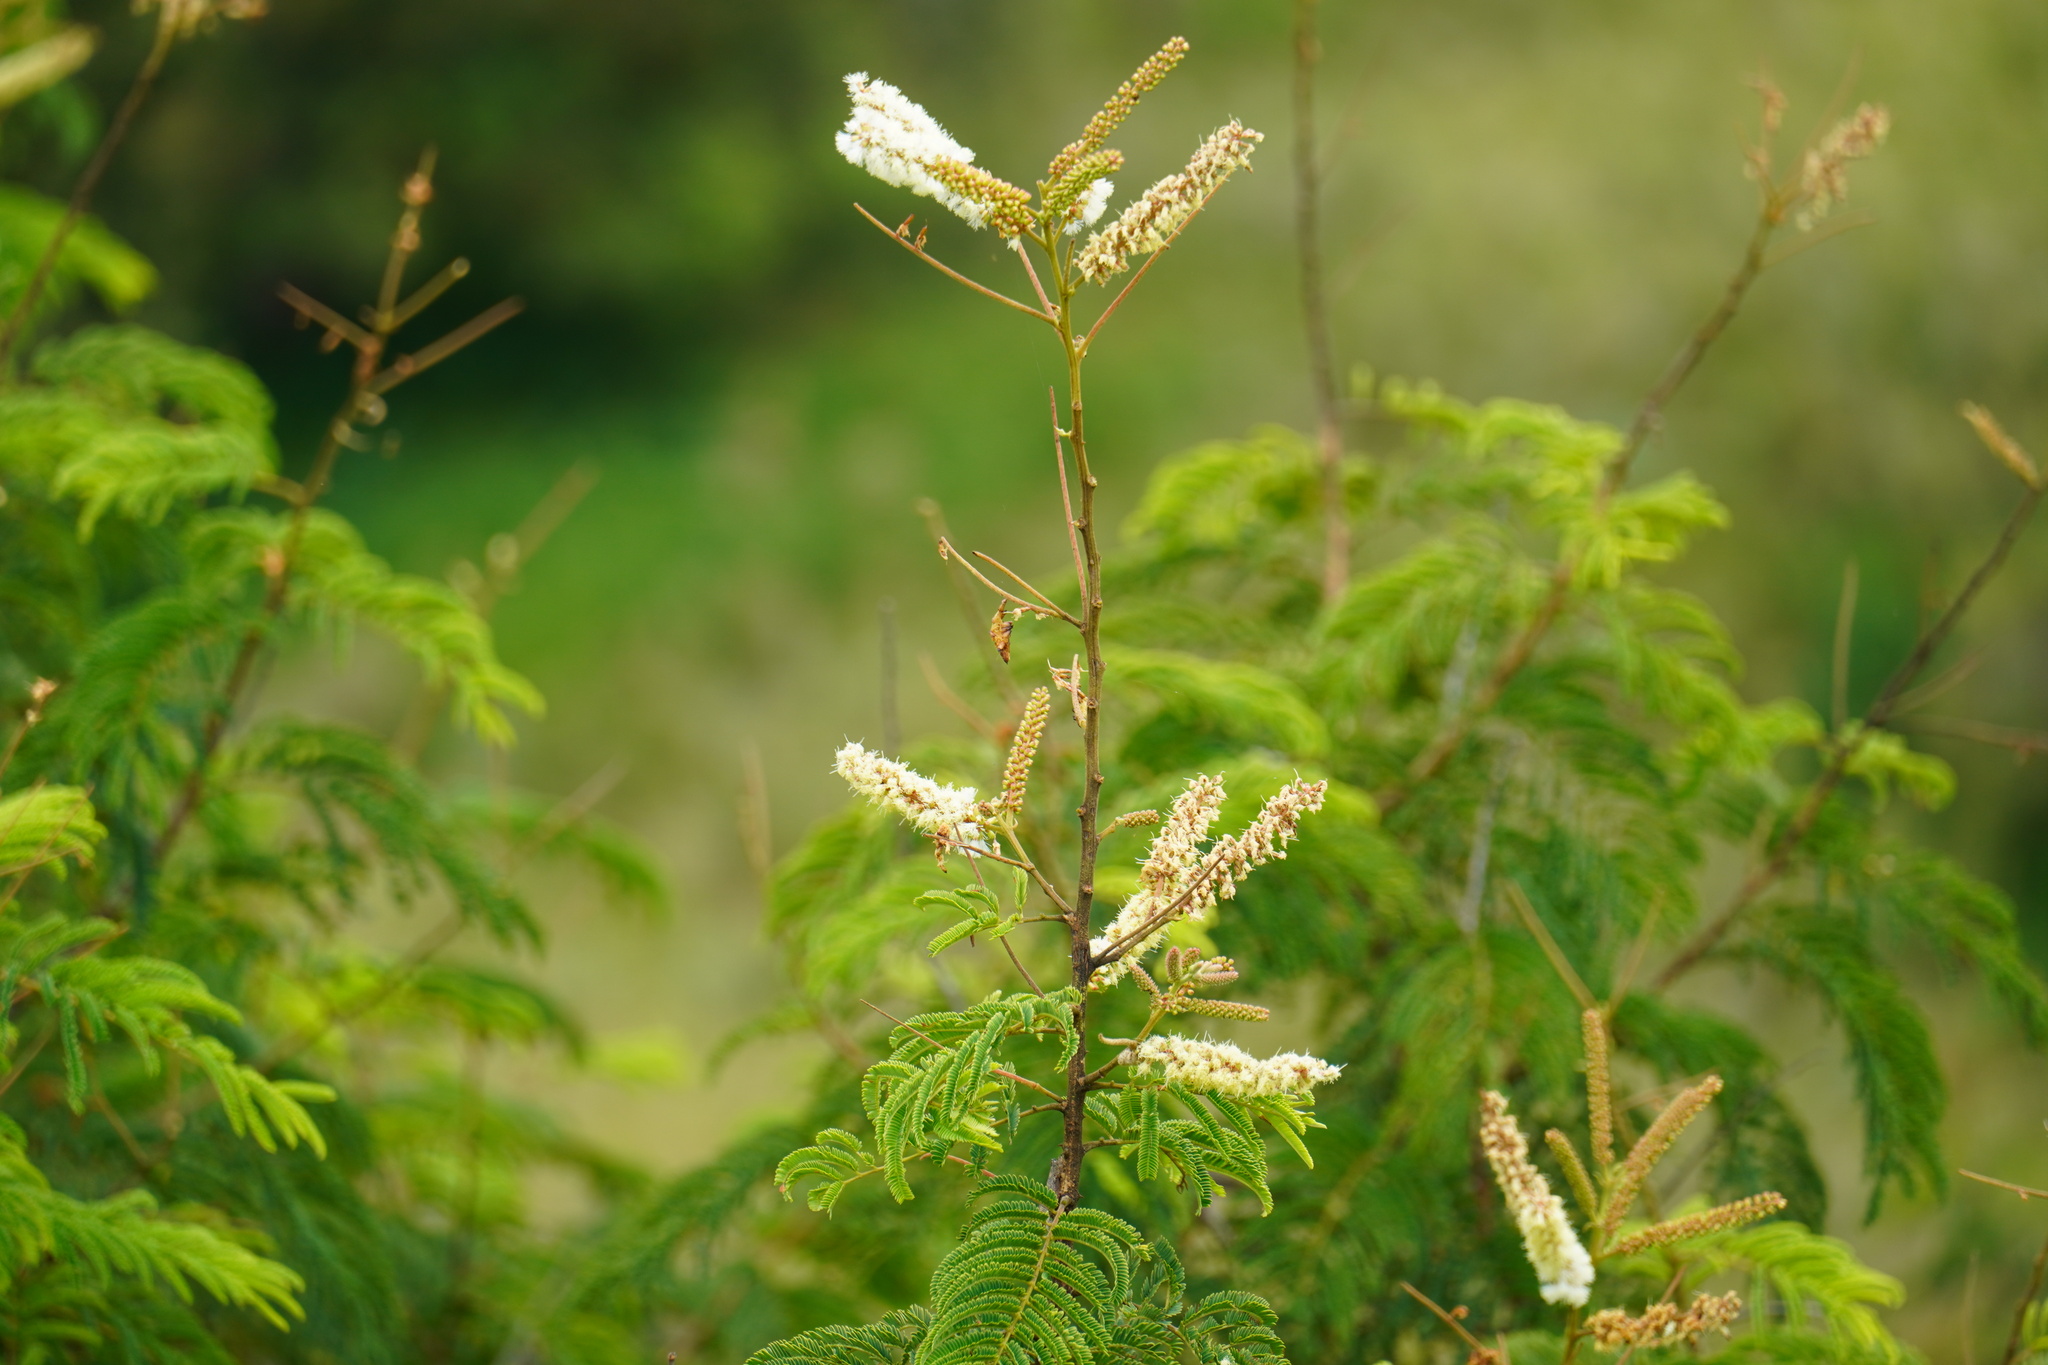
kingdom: Plantae
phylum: Tracheophyta
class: Magnoliopsida
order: Fabales
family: Fabaceae
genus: Senegalia
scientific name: Senegalia ataxacantha
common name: Flame acacia
